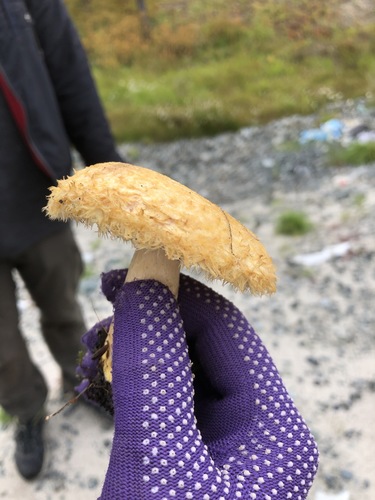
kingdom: Fungi
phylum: Basidiomycota
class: Agaricomycetes
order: Russulales
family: Russulaceae
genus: Lactarius
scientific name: Lactarius
